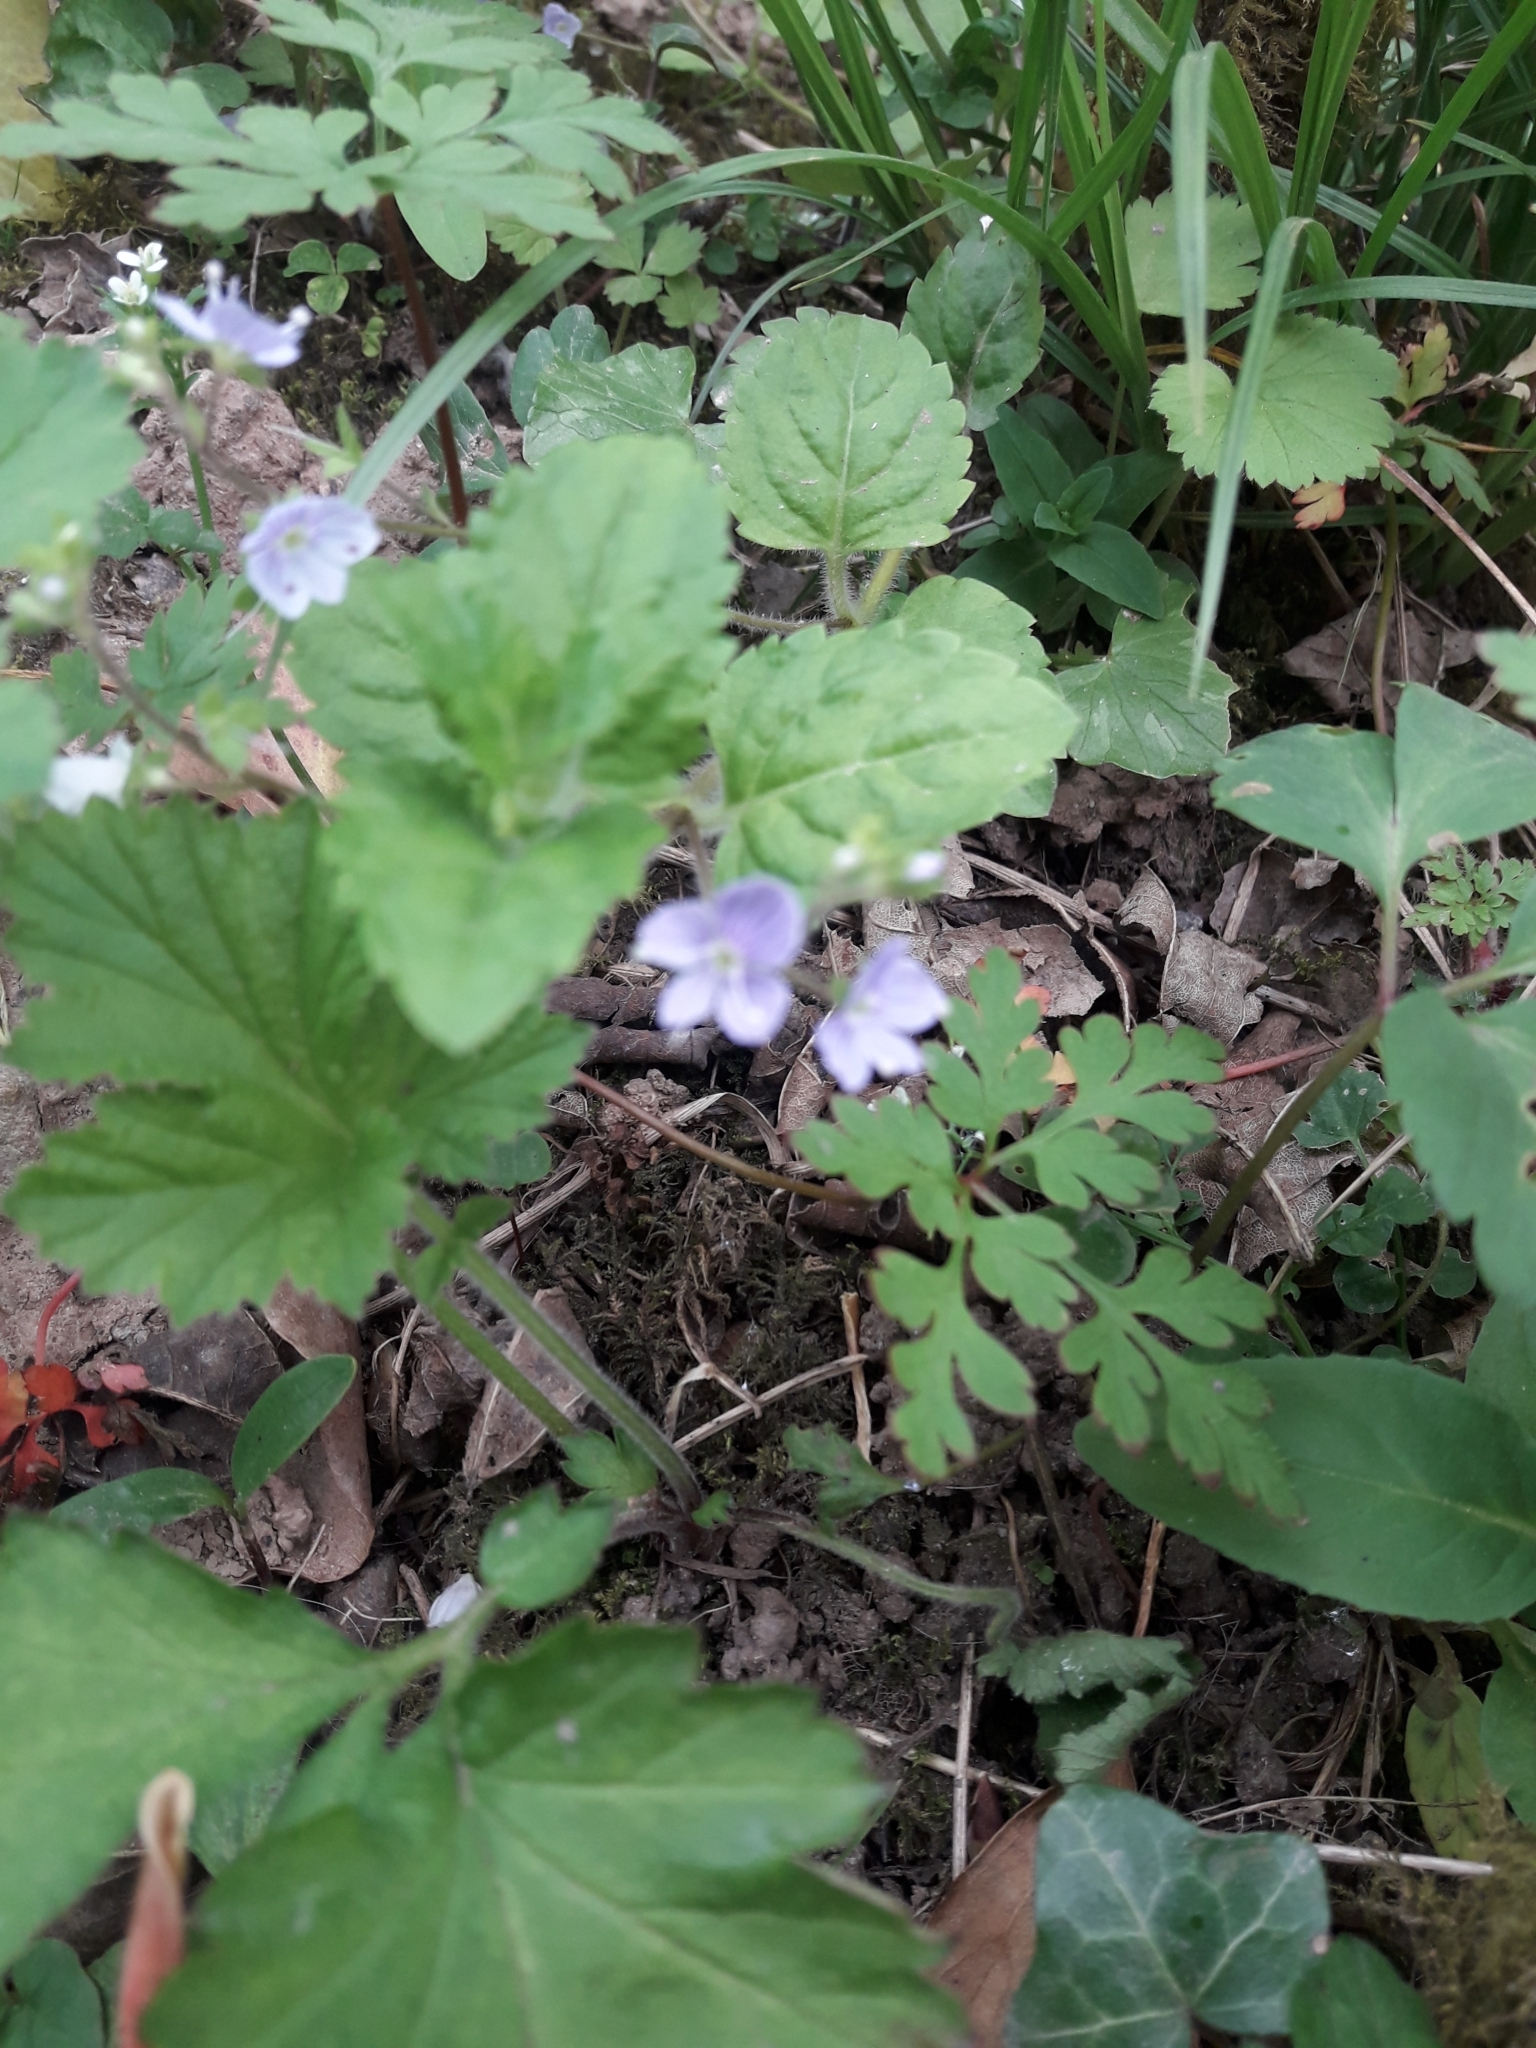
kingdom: Plantae
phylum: Tracheophyta
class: Magnoliopsida
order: Lamiales
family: Plantaginaceae
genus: Veronica
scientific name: Veronica montana
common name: Wood speedwell
